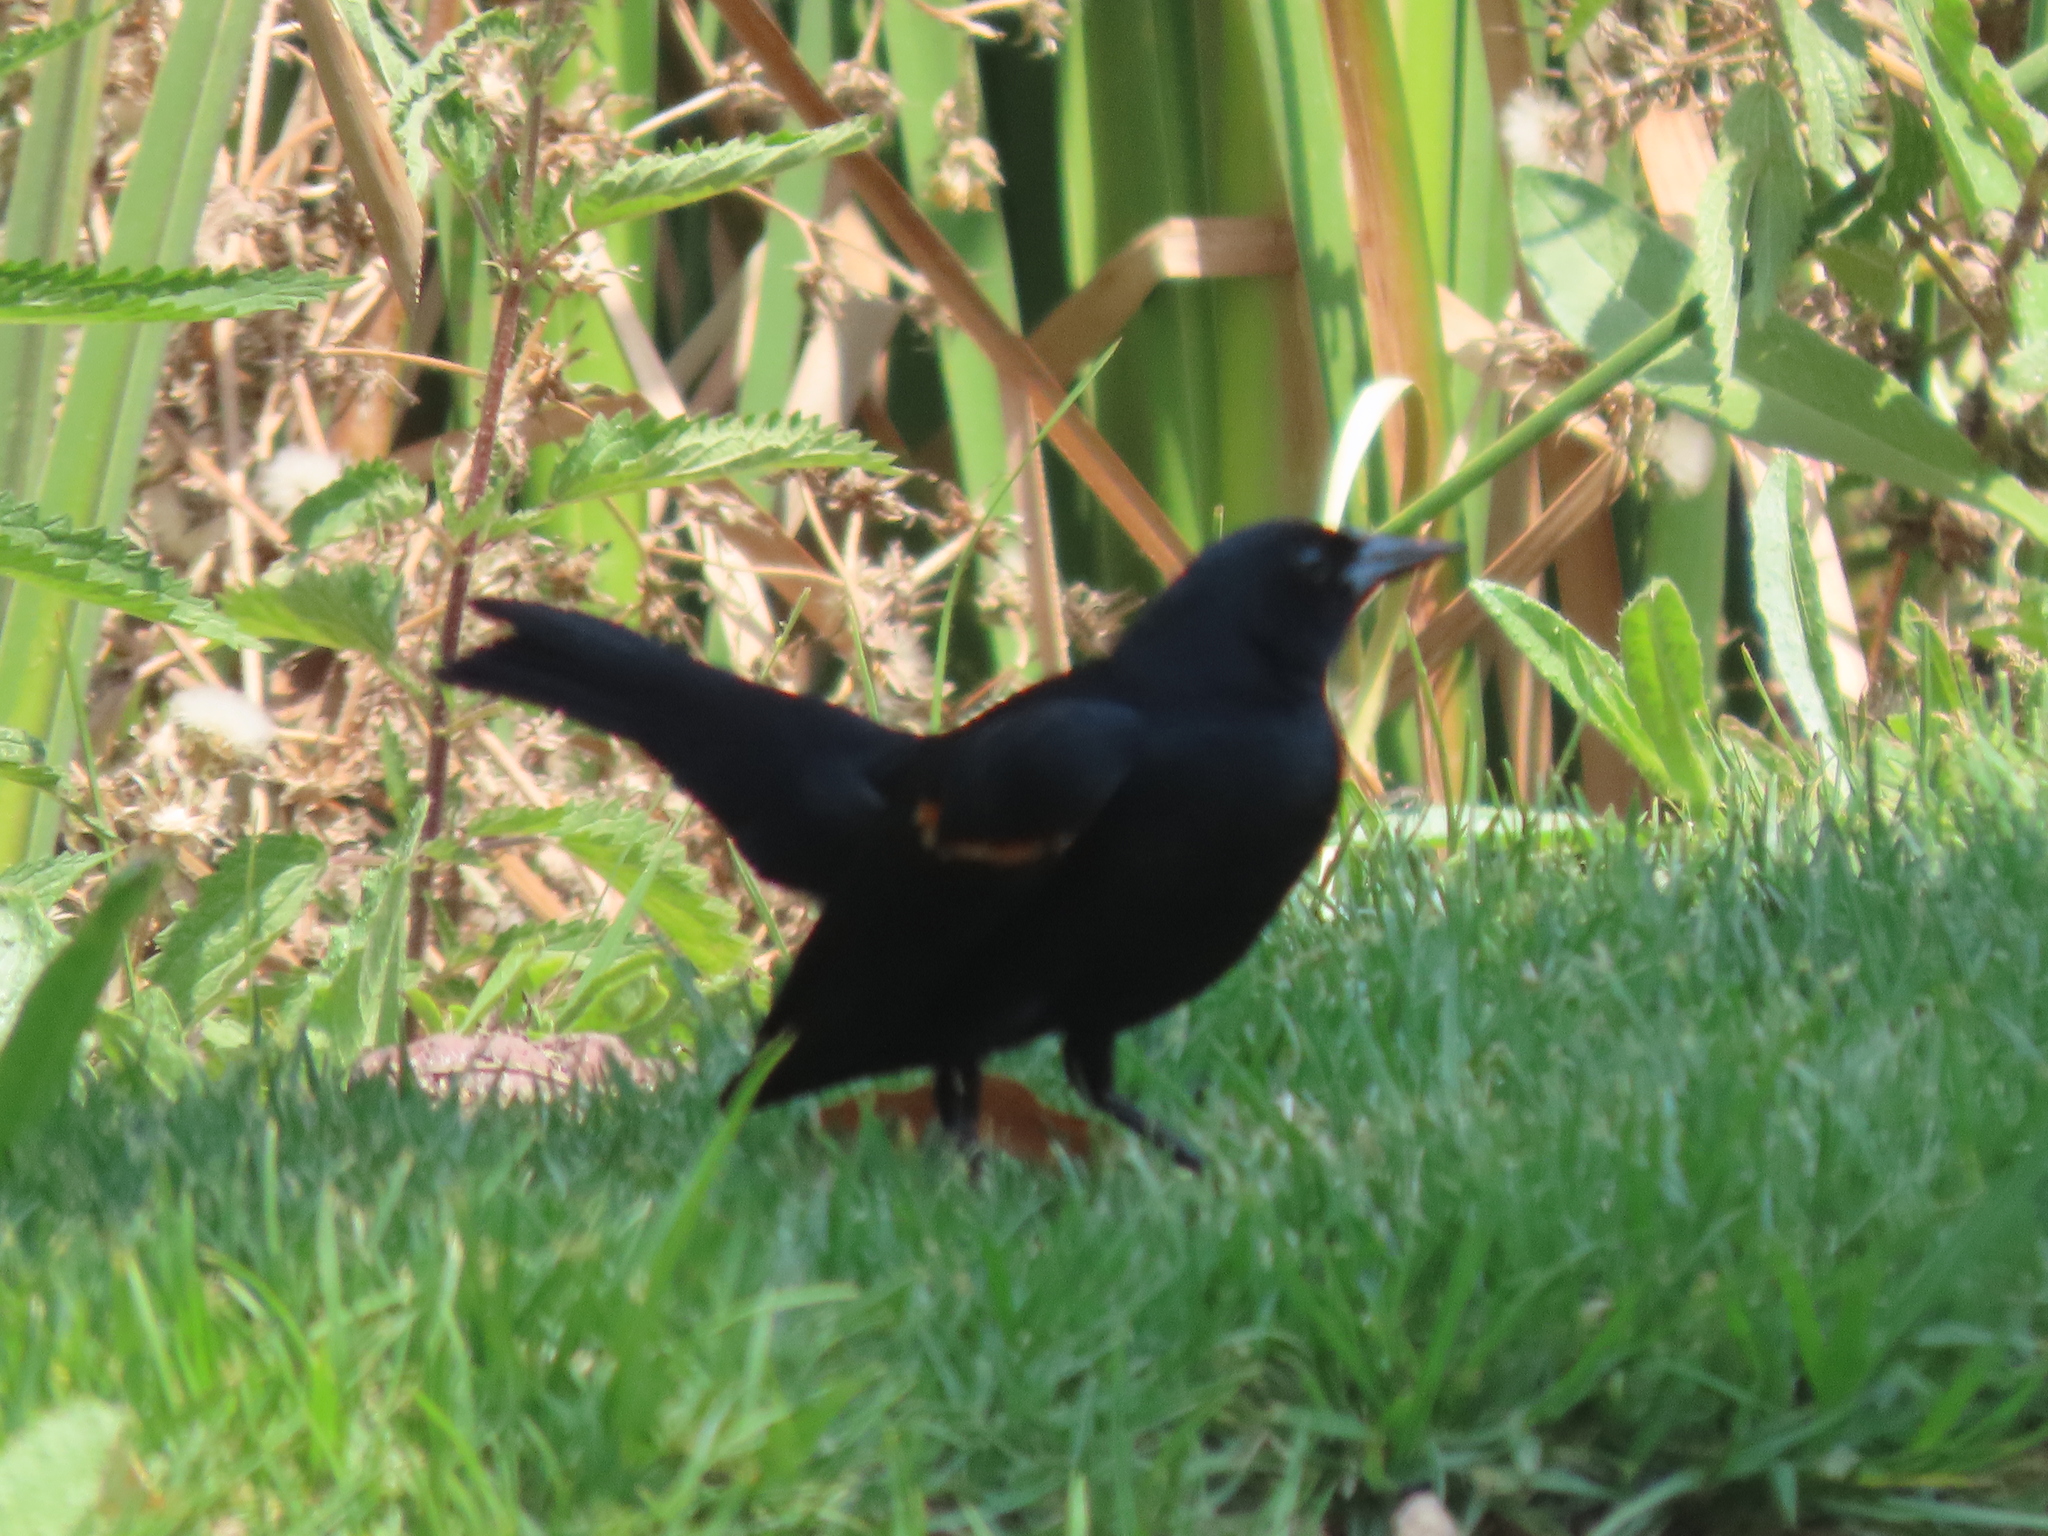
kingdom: Animalia
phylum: Chordata
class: Aves
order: Passeriformes
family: Icteridae
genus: Agelaius
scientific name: Agelaius phoeniceus
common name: Red-winged blackbird
